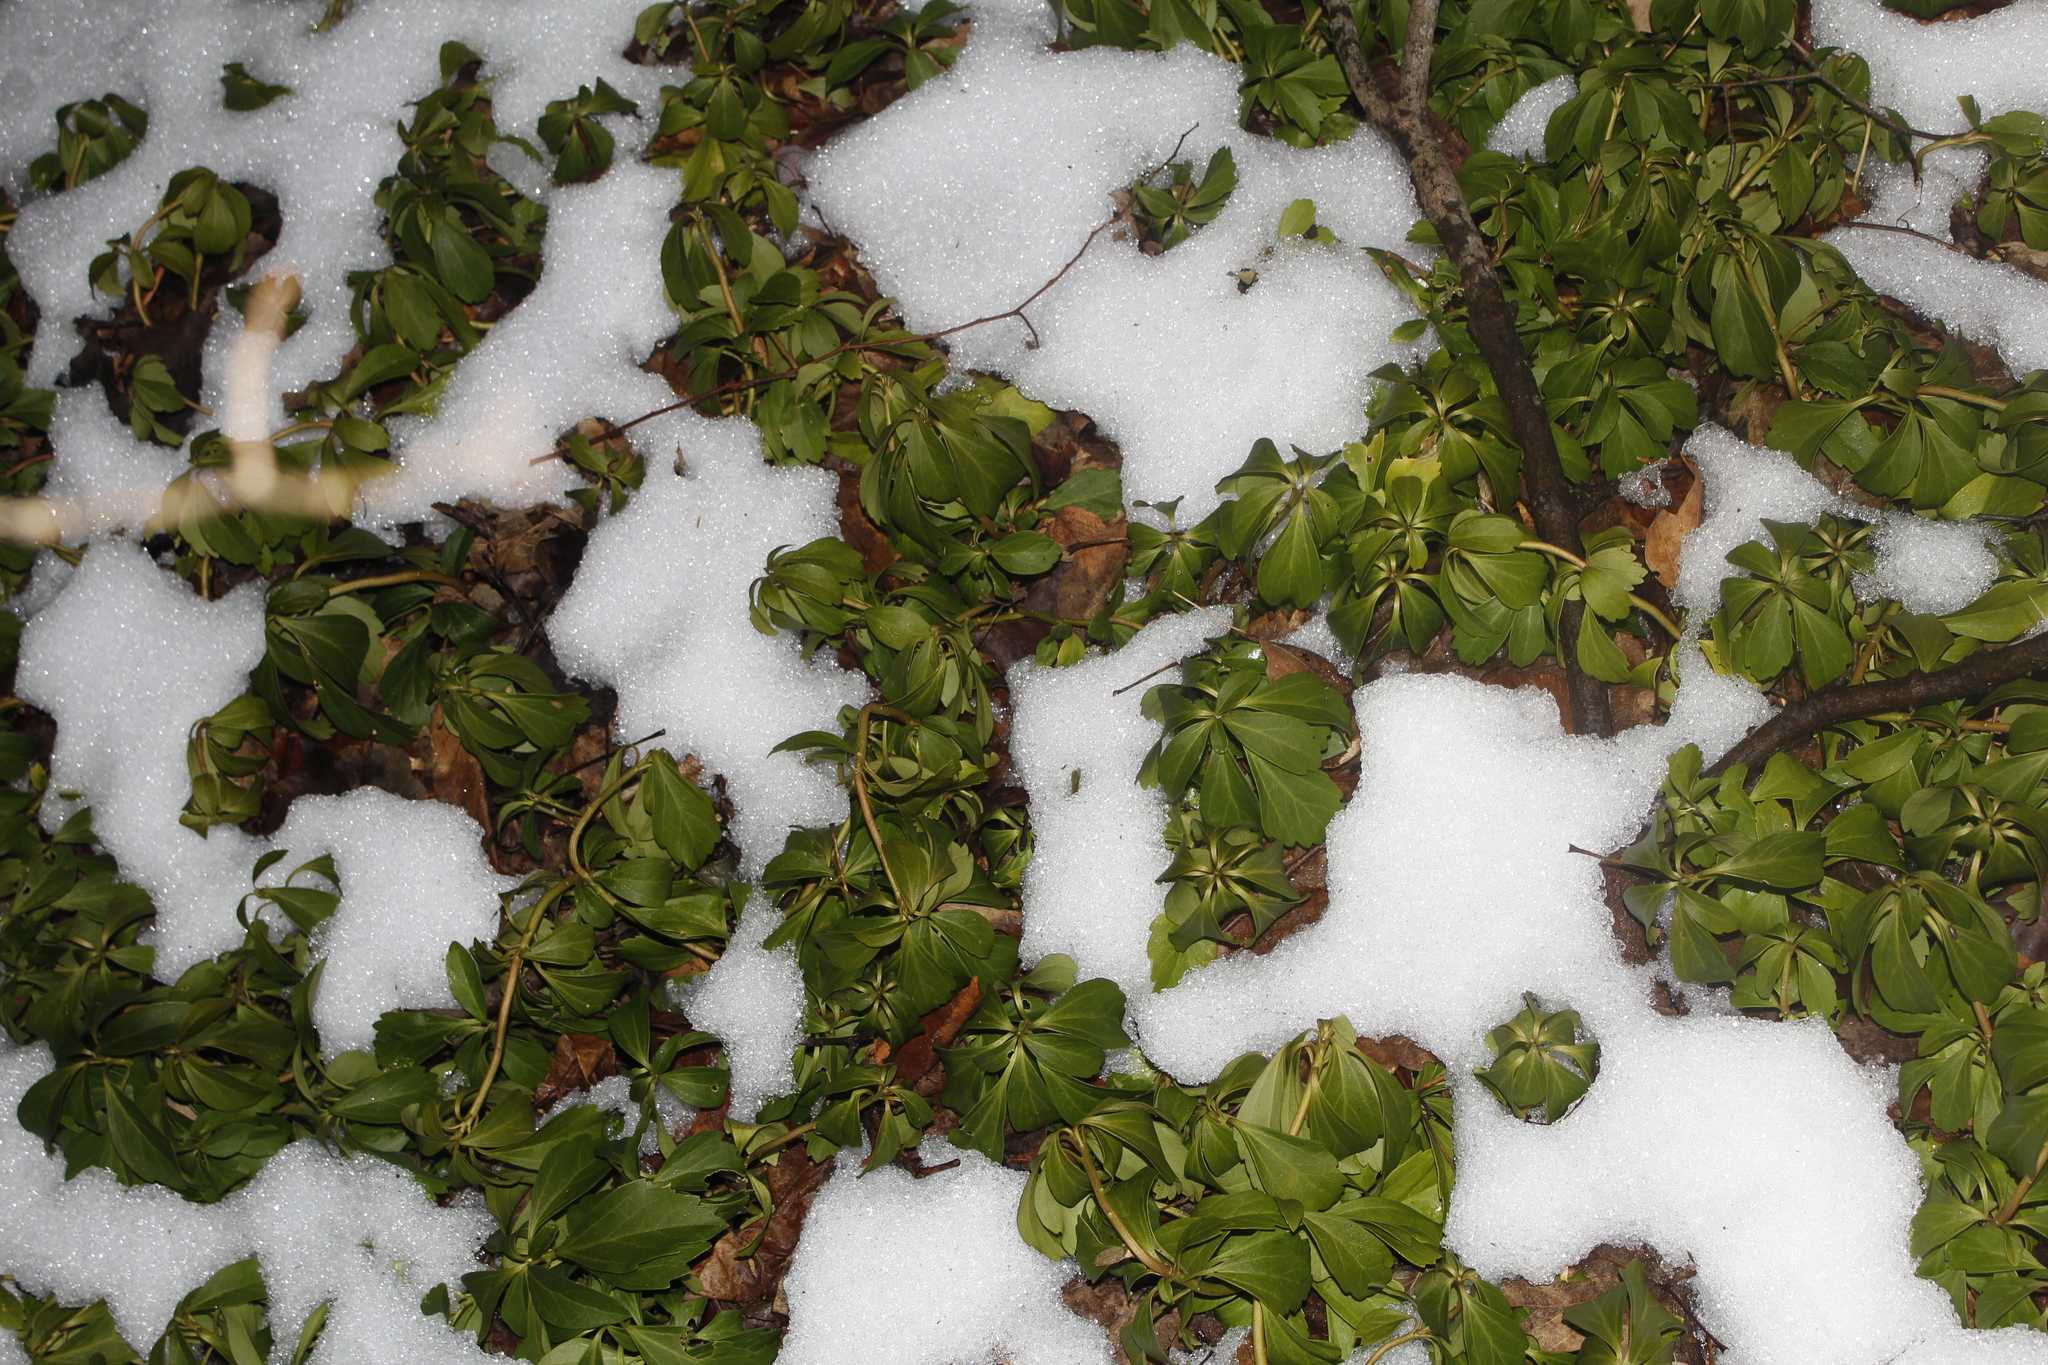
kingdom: Plantae
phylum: Tracheophyta
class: Magnoliopsida
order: Buxales
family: Buxaceae
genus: Pachysandra
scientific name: Pachysandra terminalis
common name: Japanese pachysandra
